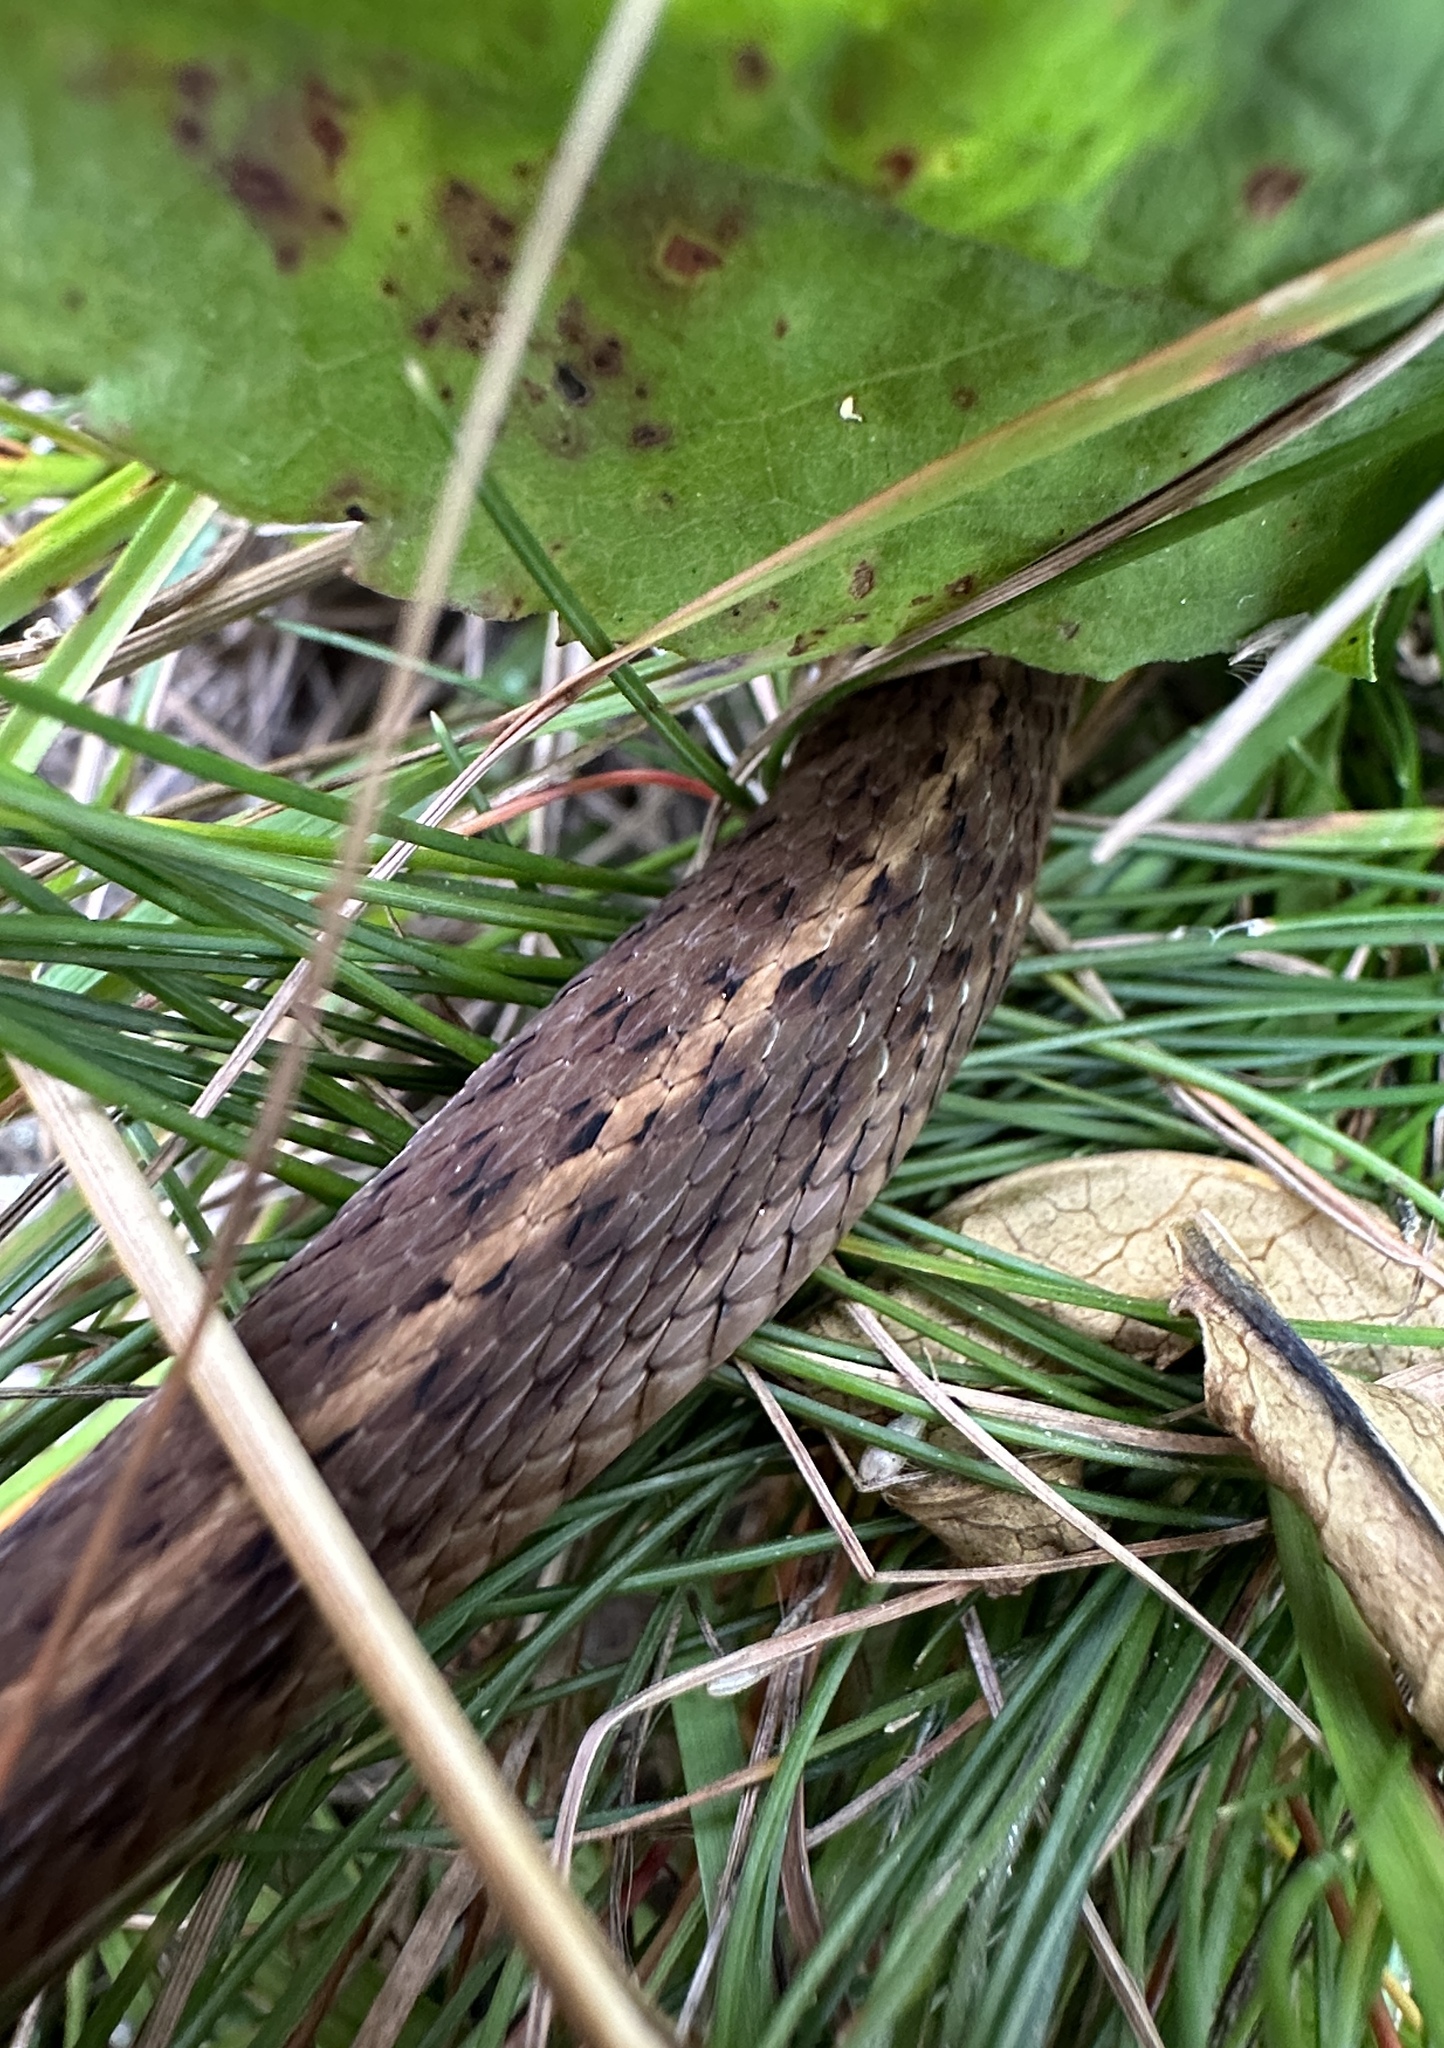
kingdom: Animalia
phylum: Chordata
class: Squamata
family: Colubridae
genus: Thamnophis
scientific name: Thamnophis sirtalis
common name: Common garter snake
